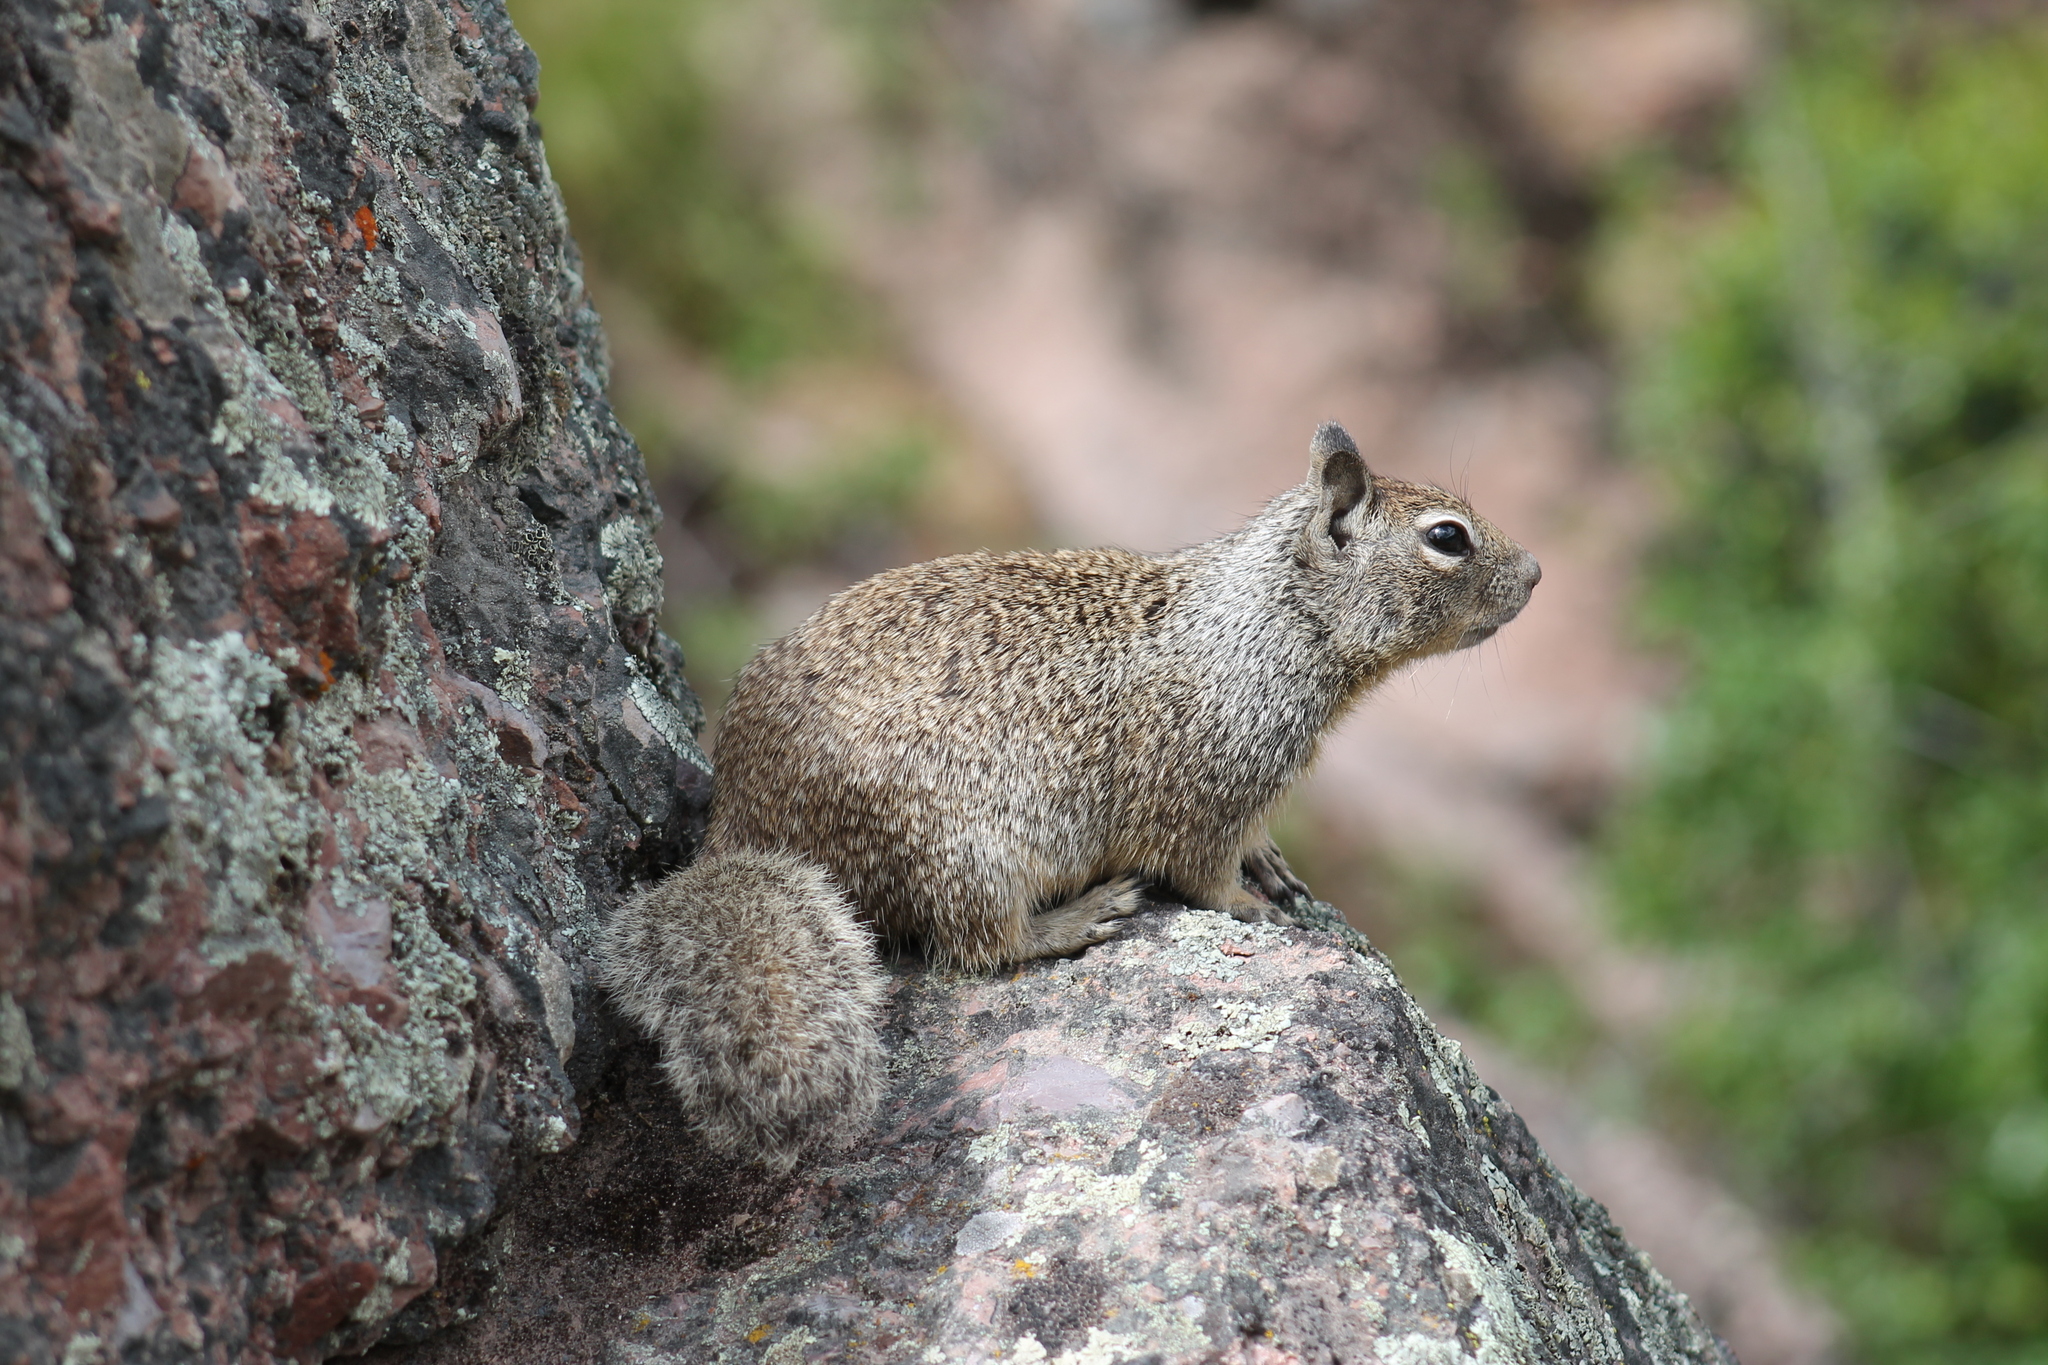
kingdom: Animalia
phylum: Chordata
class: Mammalia
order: Rodentia
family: Sciuridae
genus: Otospermophilus
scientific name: Otospermophilus beecheyi
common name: California ground squirrel
